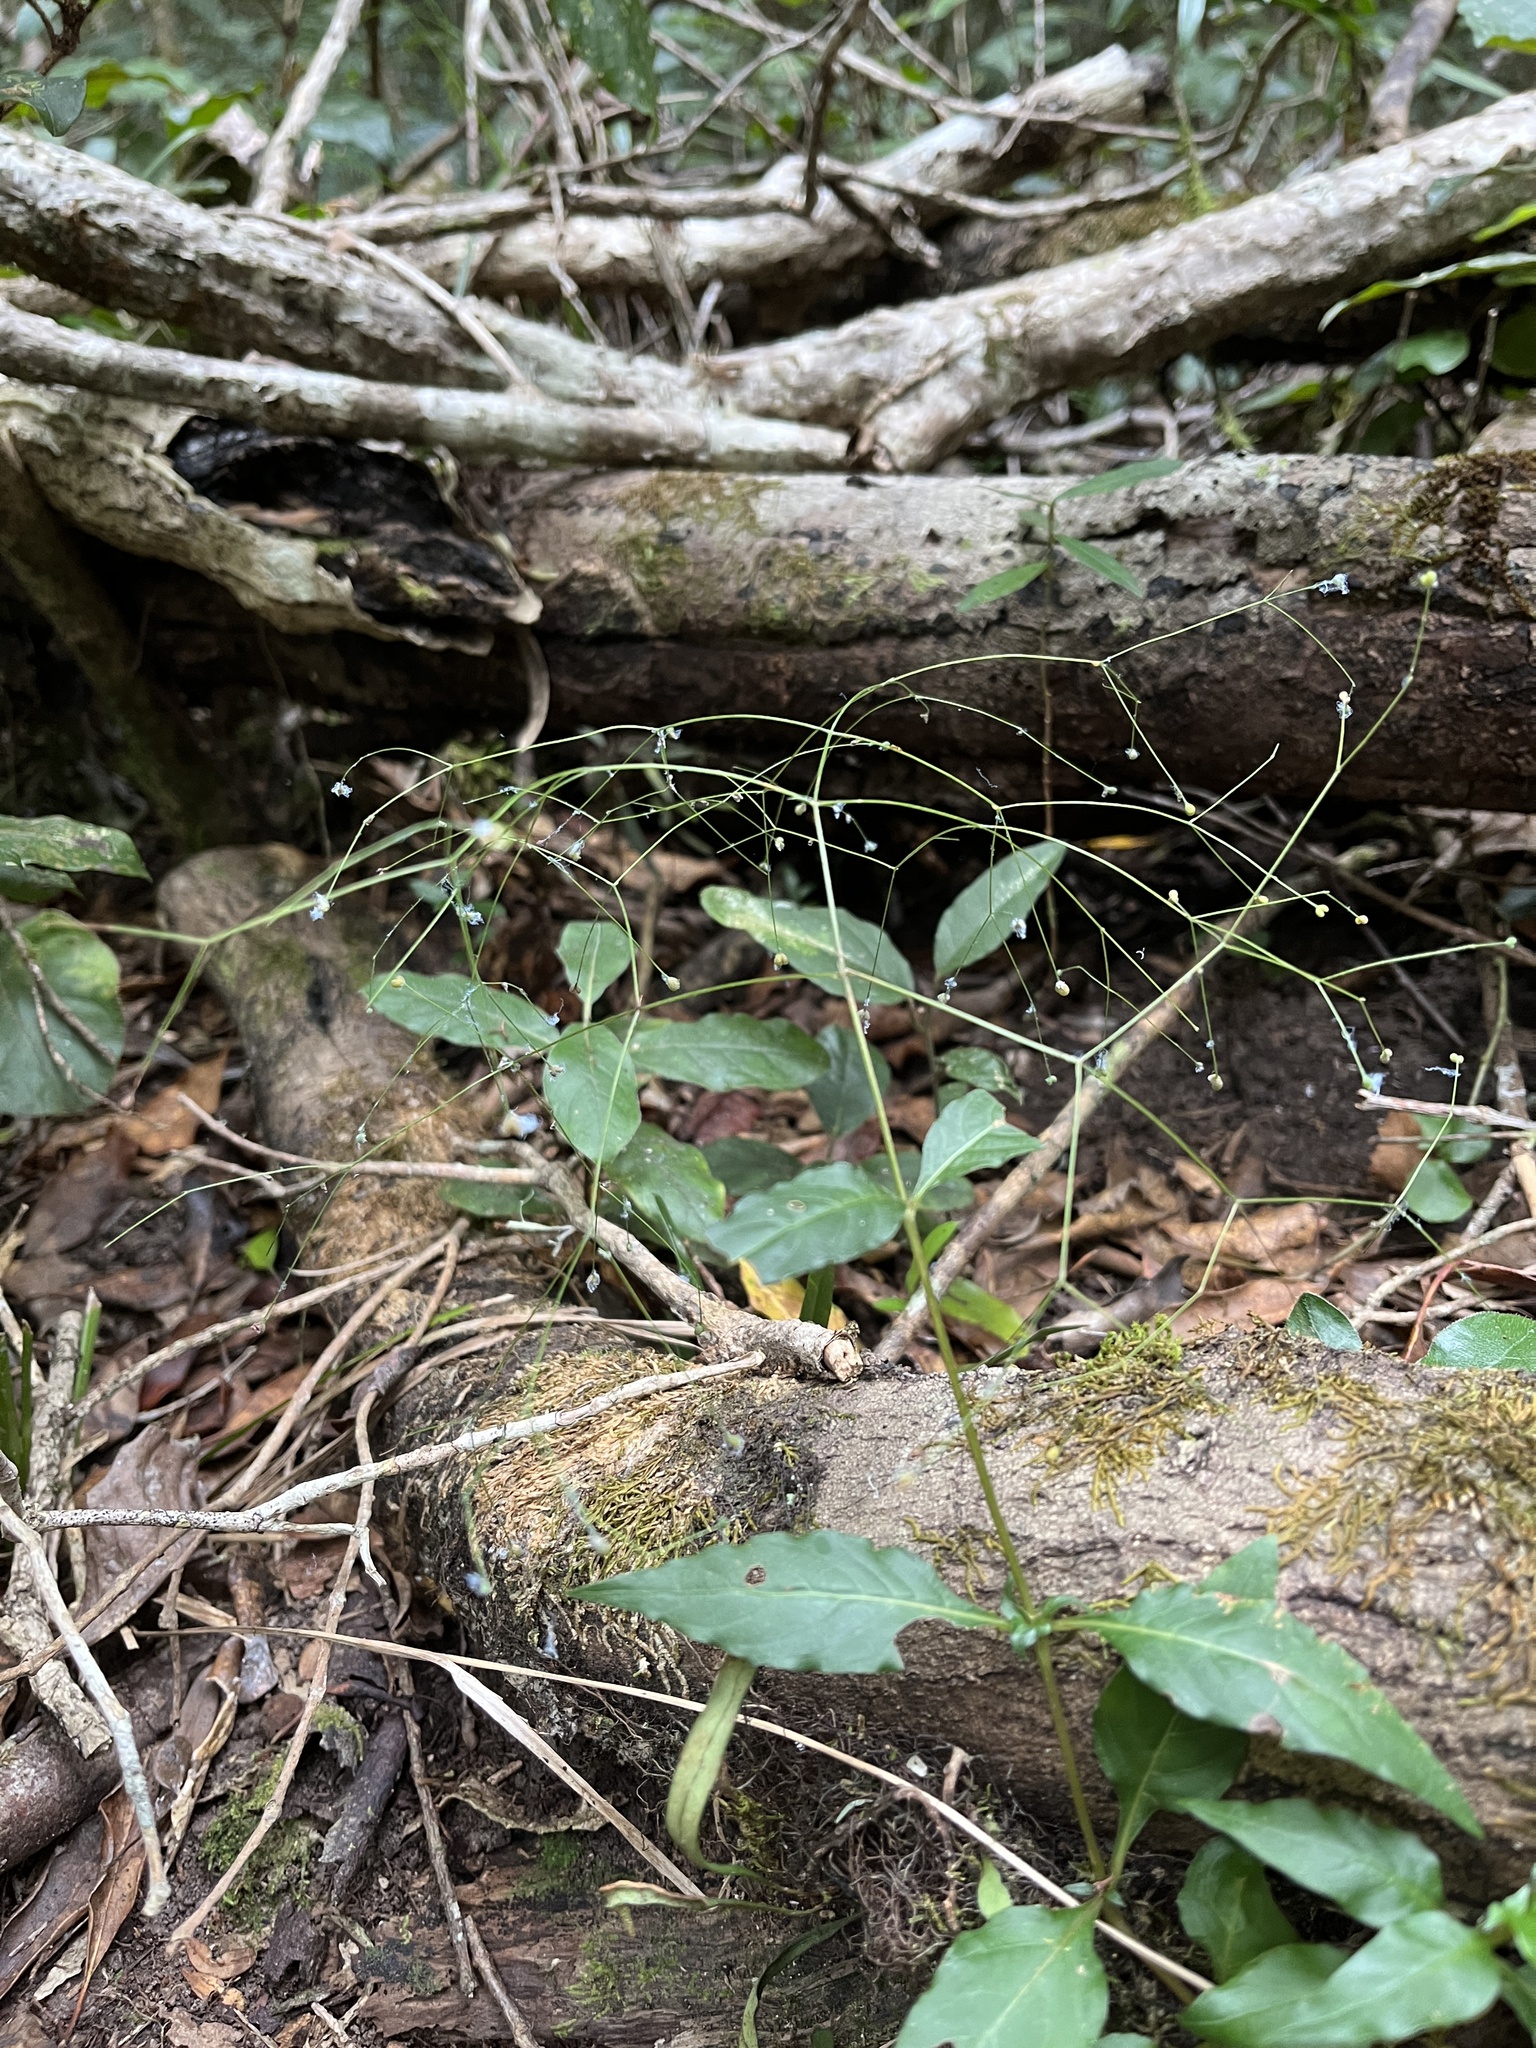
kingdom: Plantae
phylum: Tracheophyta
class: Magnoliopsida
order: Gentianales
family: Rubiaceae
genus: Galopina
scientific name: Galopina circaeoides
